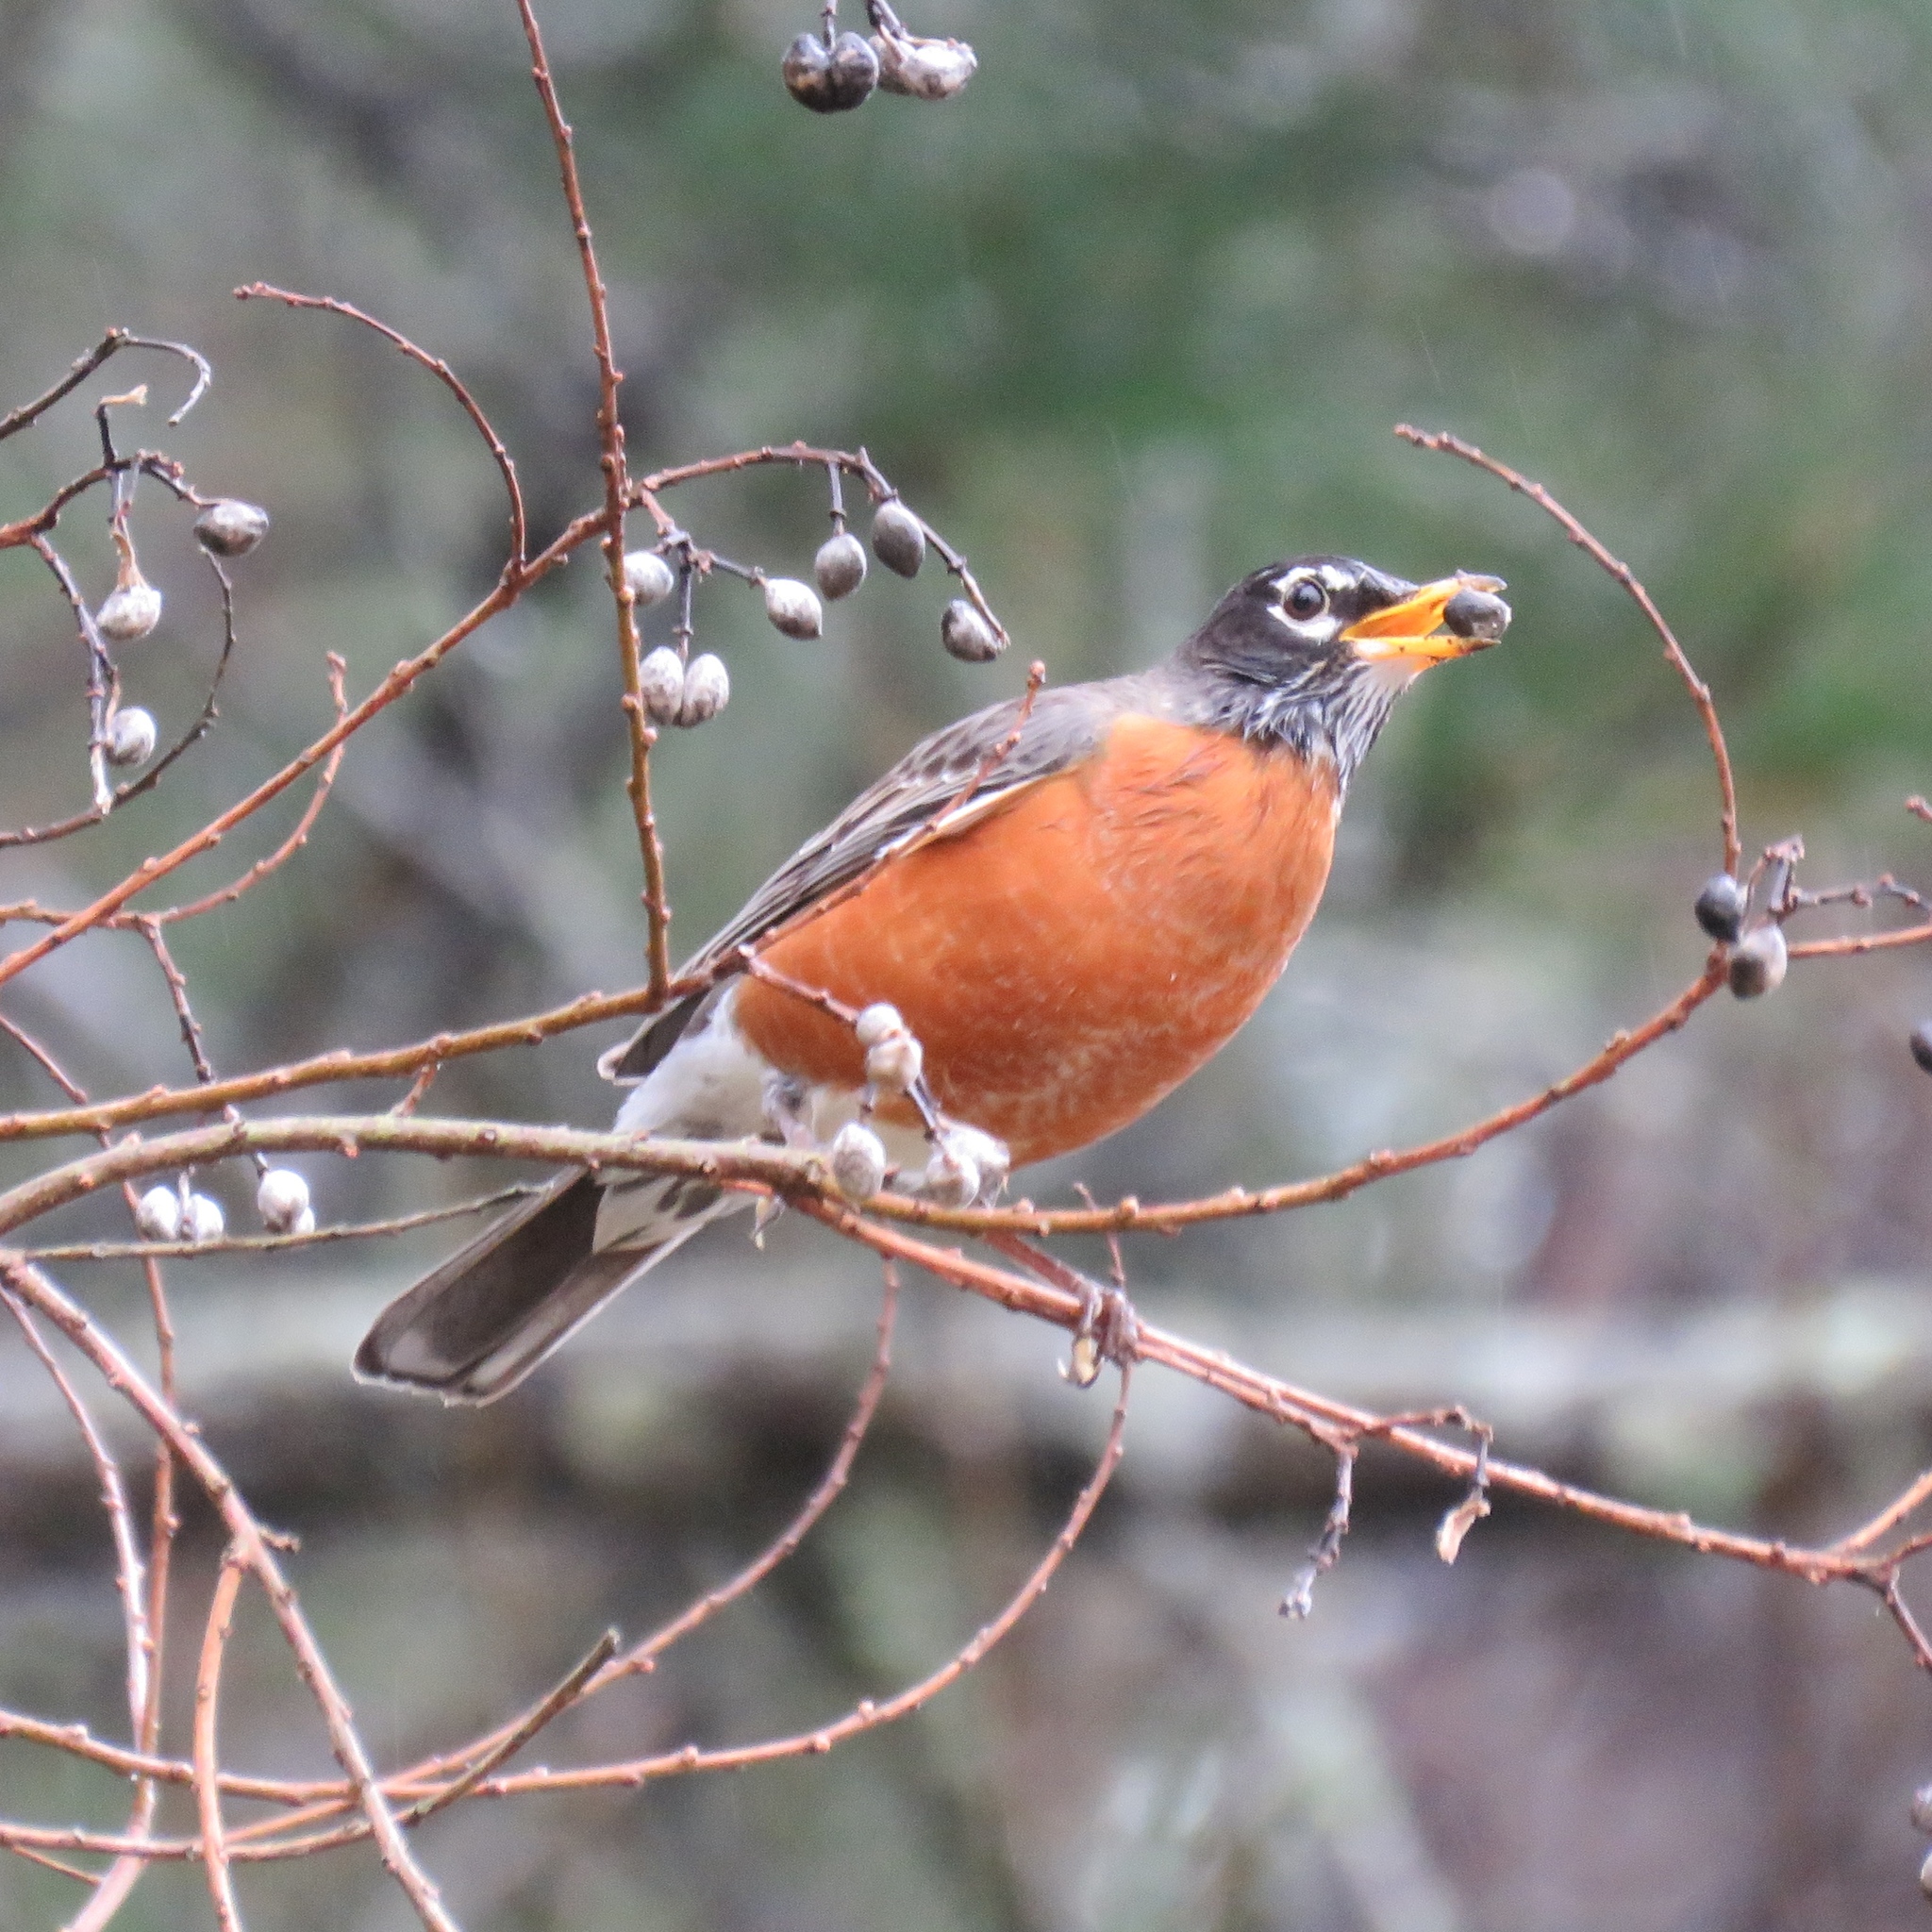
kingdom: Animalia
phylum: Chordata
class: Aves
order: Passeriformes
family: Turdidae
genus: Turdus
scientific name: Turdus migratorius
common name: American robin
